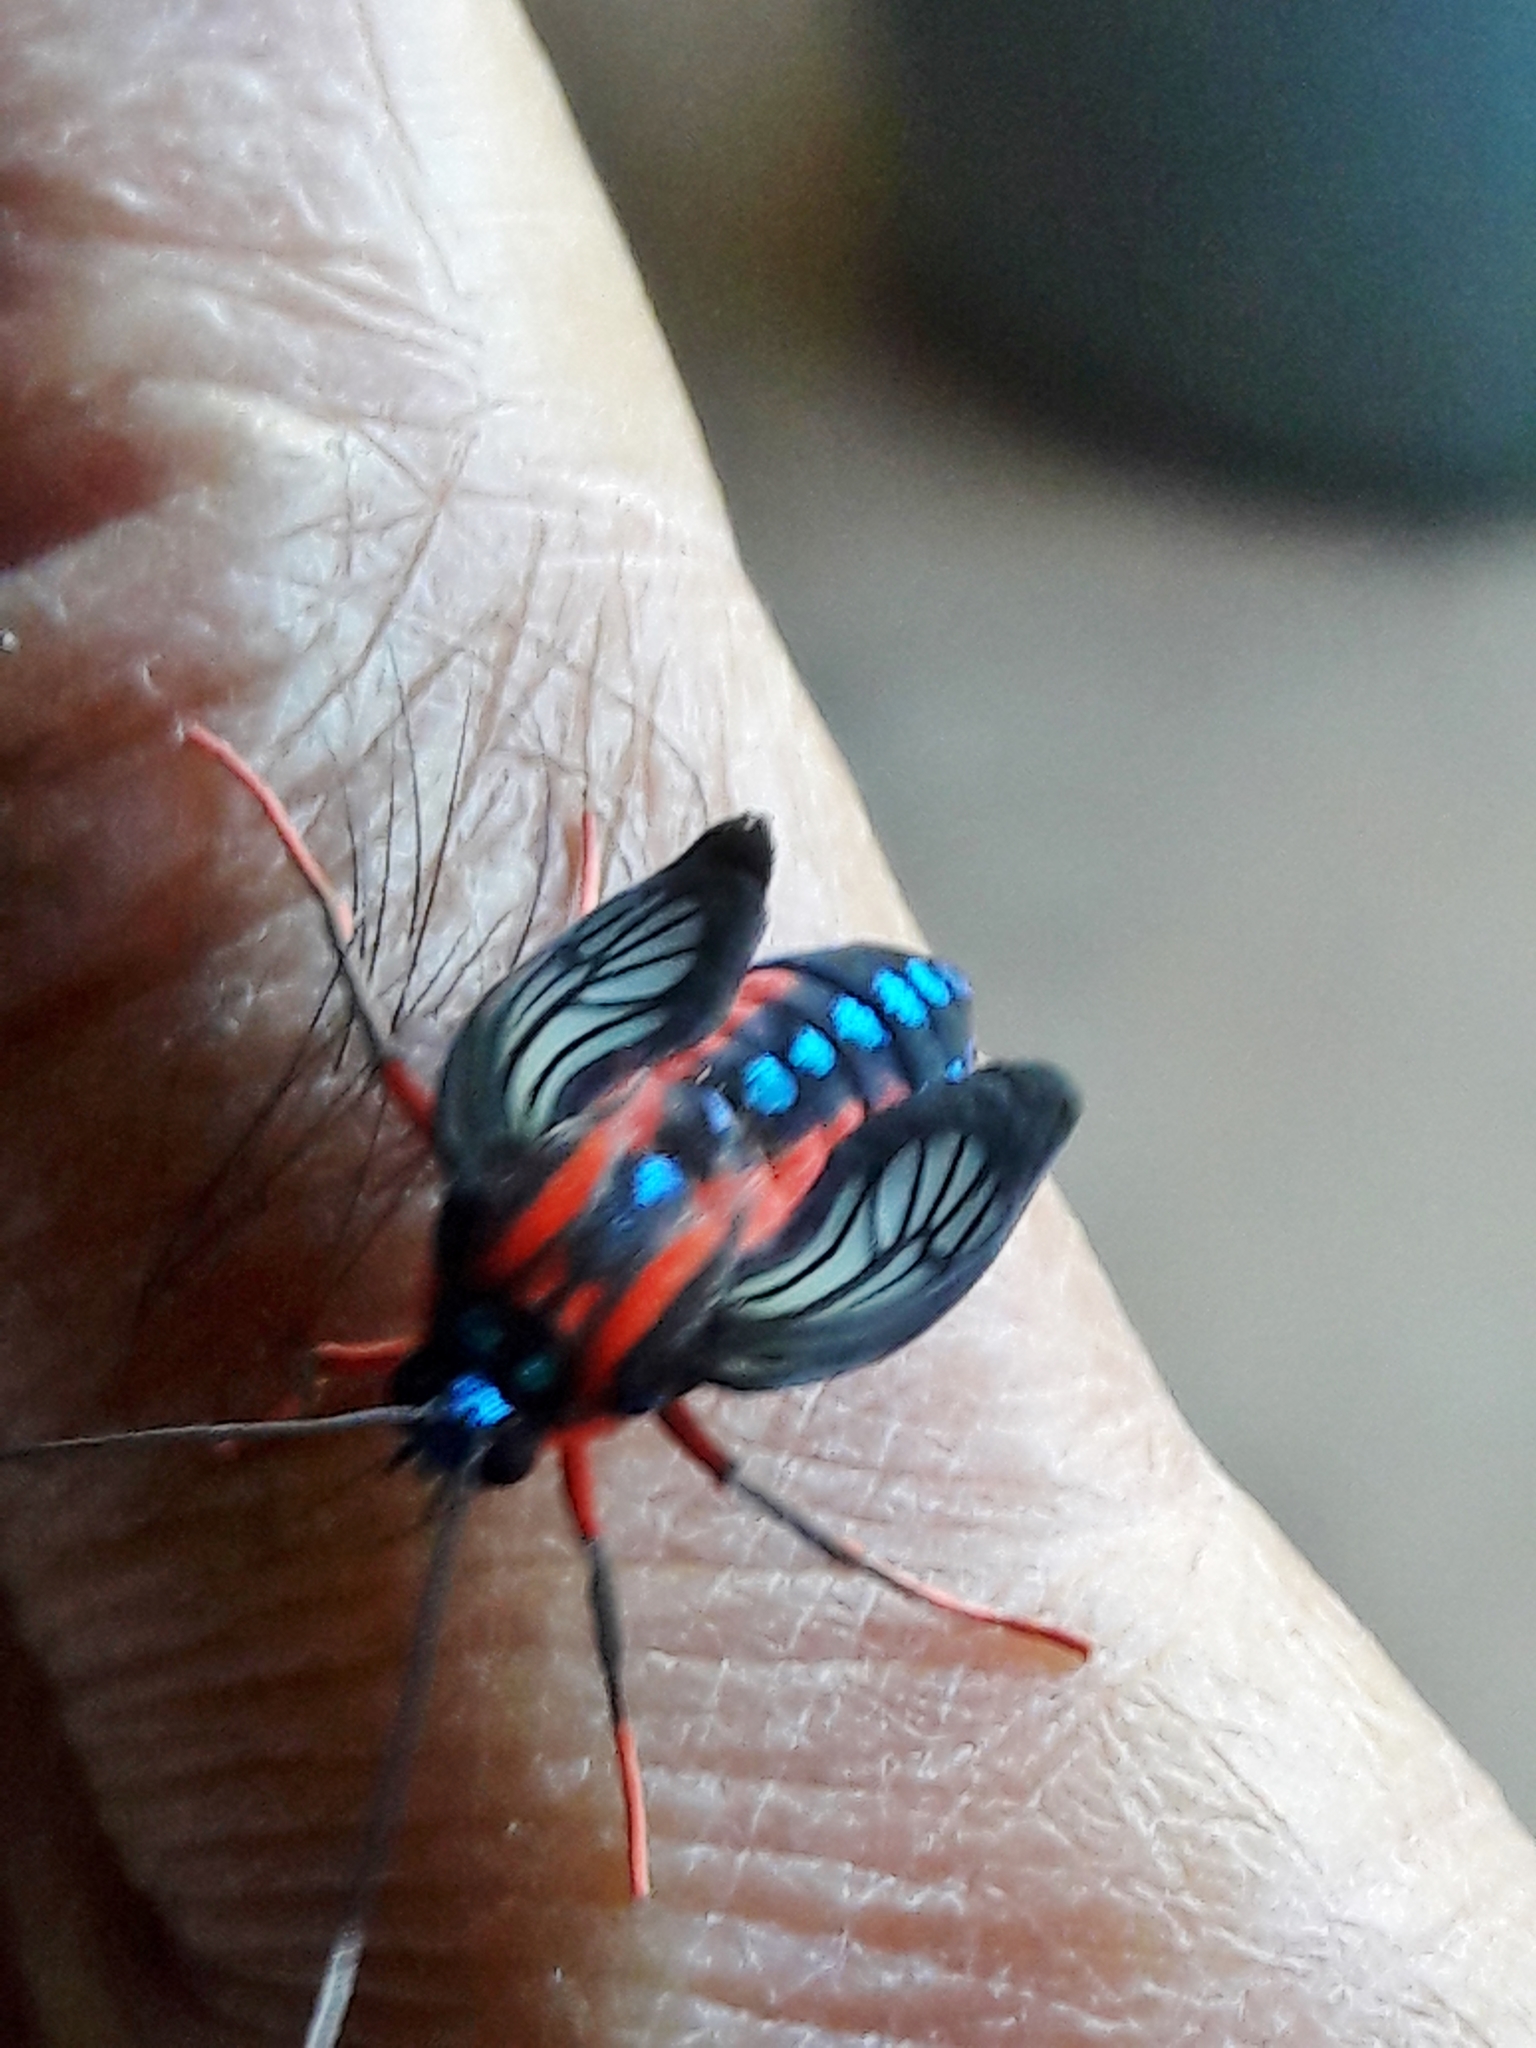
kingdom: Animalia
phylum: Arthropoda
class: Insecta
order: Lepidoptera
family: Erebidae
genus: Cosmosoma
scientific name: Cosmosoma auge
